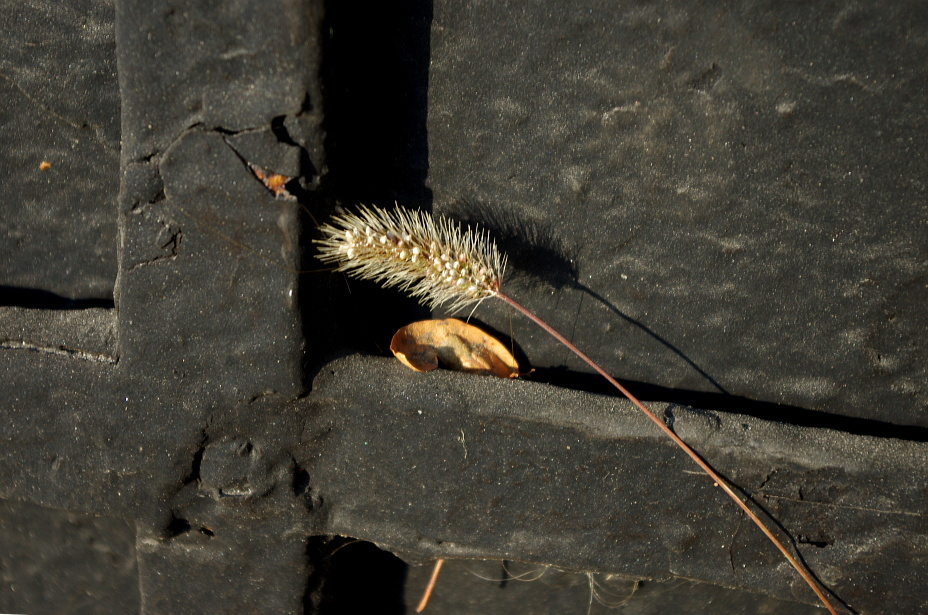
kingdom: Plantae
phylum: Tracheophyta
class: Liliopsida
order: Poales
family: Poaceae
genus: Setaria
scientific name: Setaria viridis
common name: Green bristlegrass
